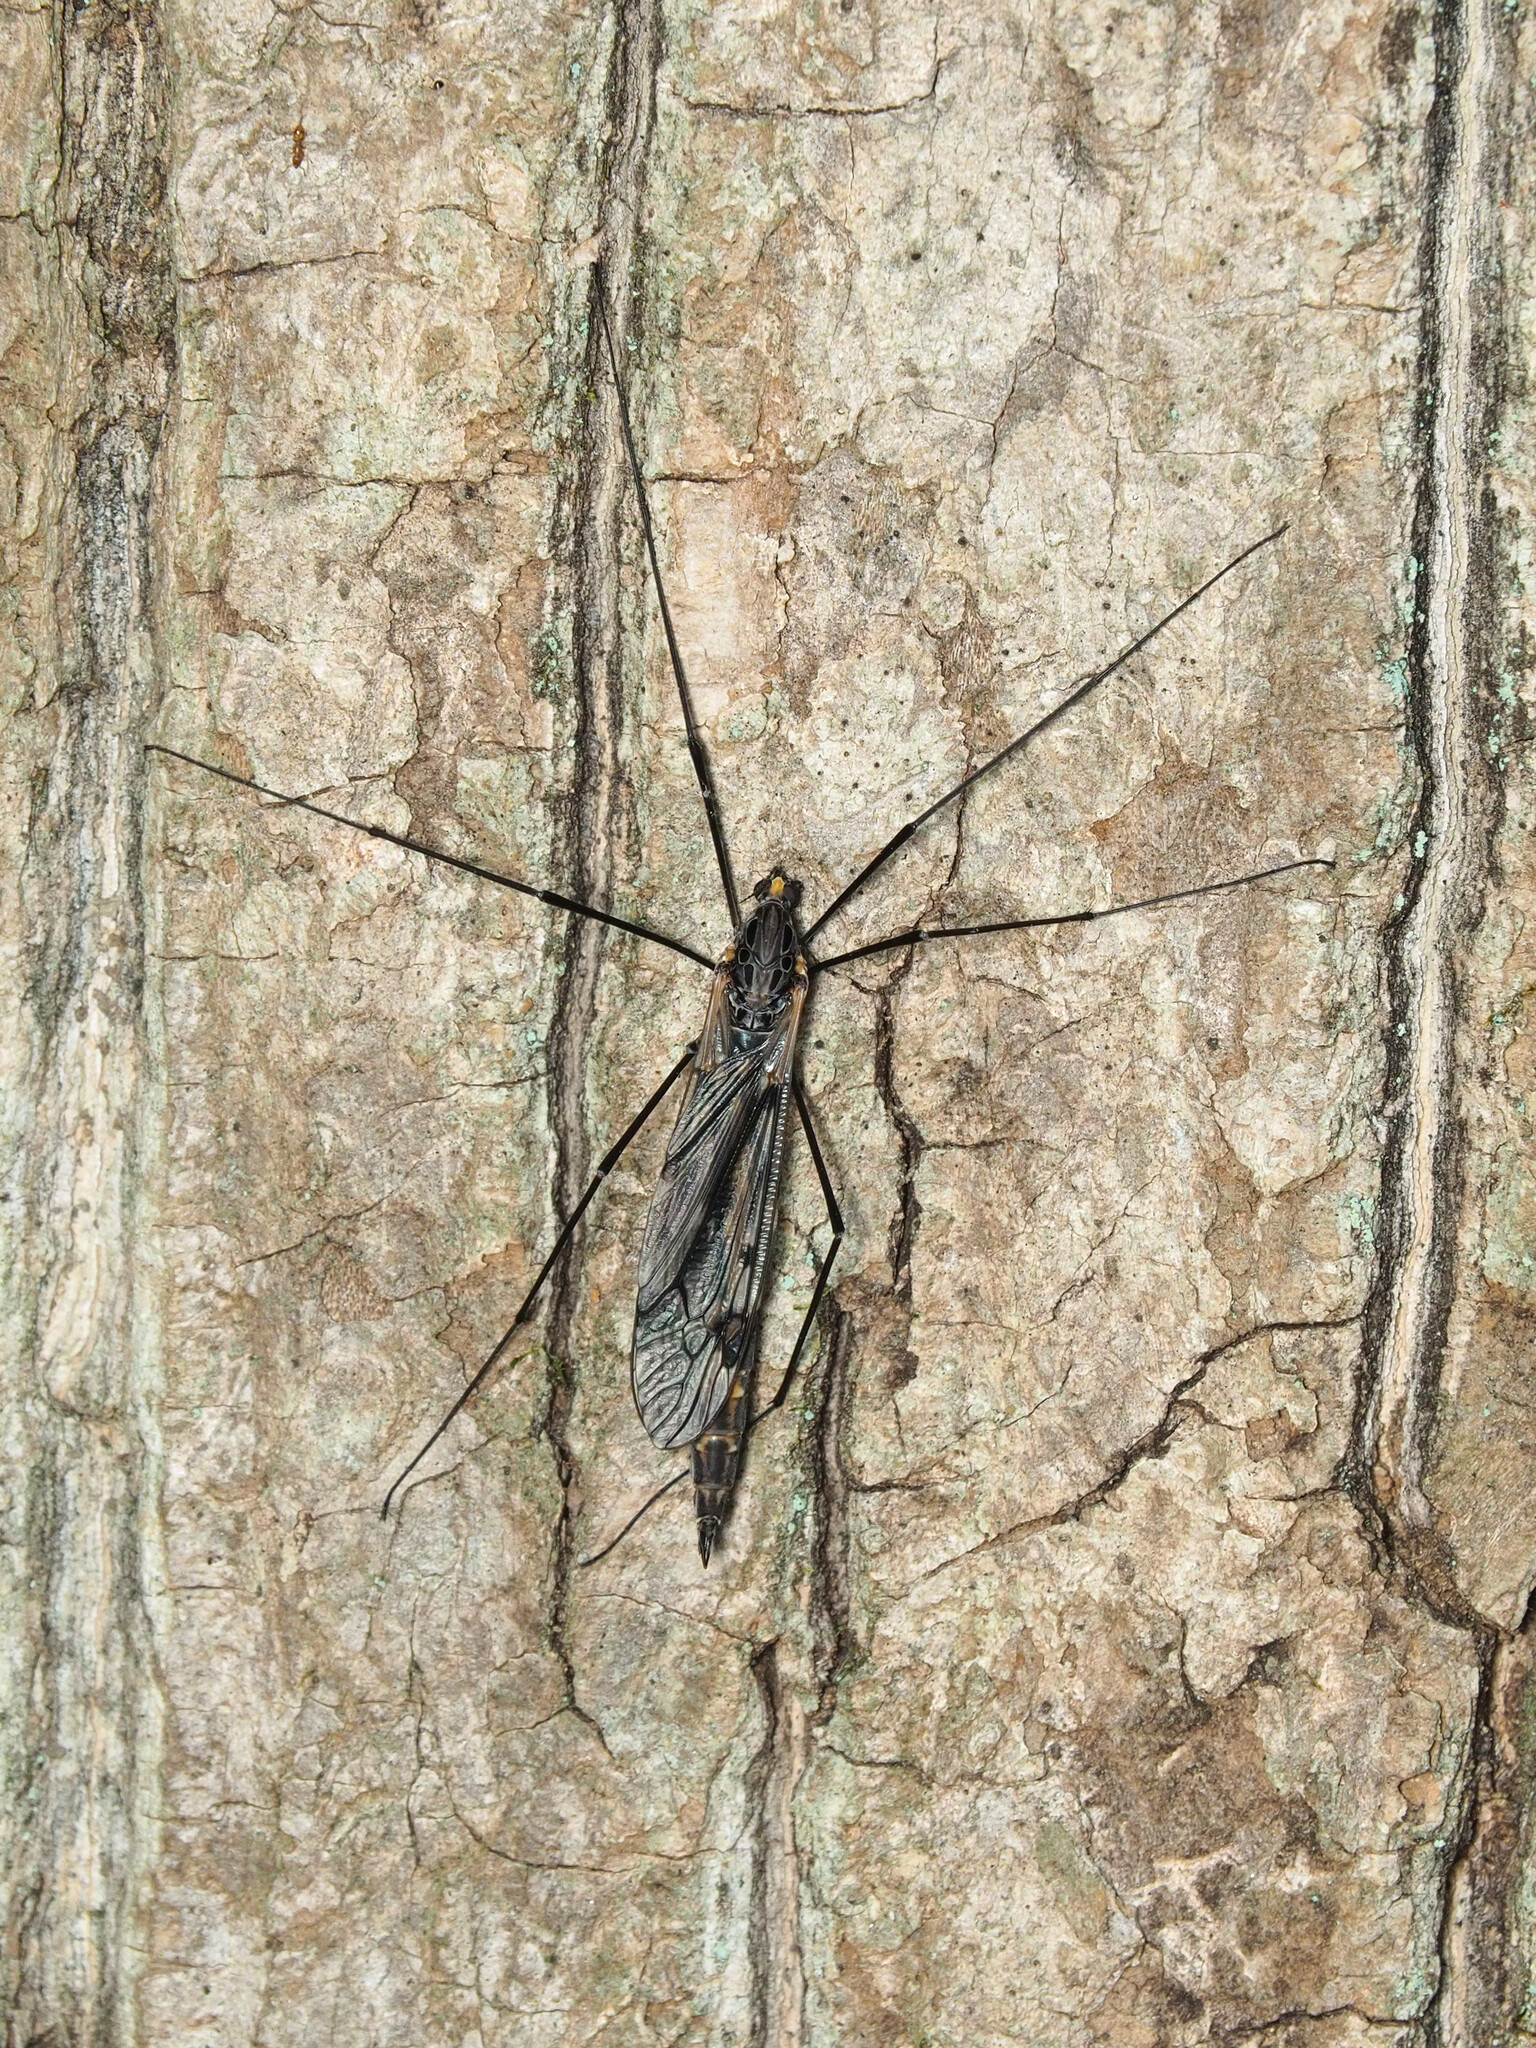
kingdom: Animalia
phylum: Arthropoda
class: Insecta
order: Diptera
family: Tipulidae
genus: Tipula
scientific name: Tipula metacomet
